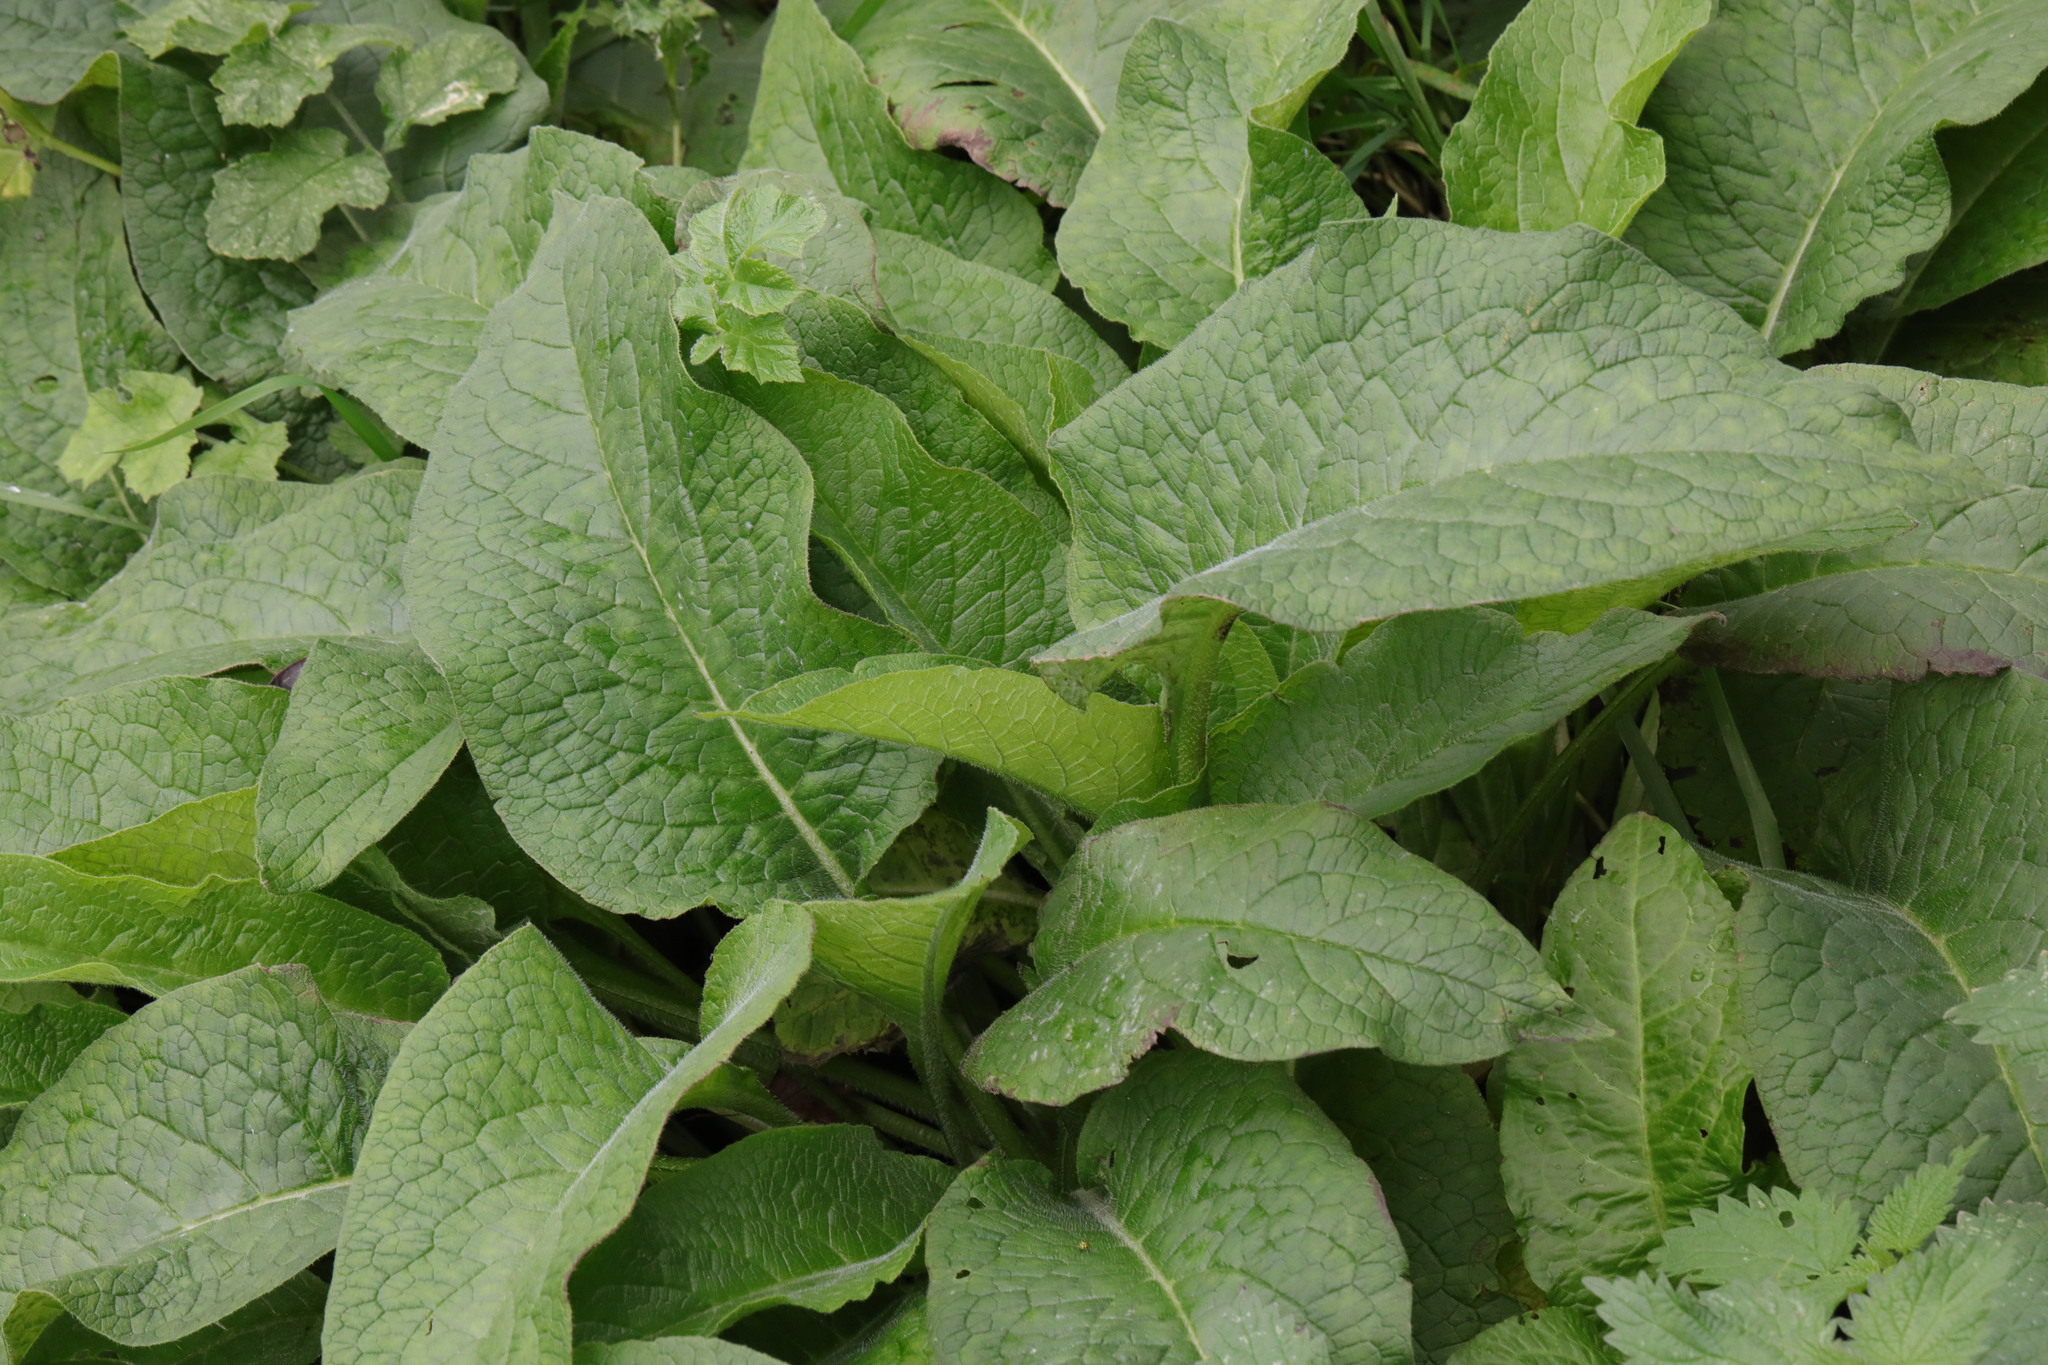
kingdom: Plantae
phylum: Tracheophyta
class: Magnoliopsida
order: Boraginales
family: Boraginaceae
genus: Symphytum
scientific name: Symphytum officinale
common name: Common comfrey
